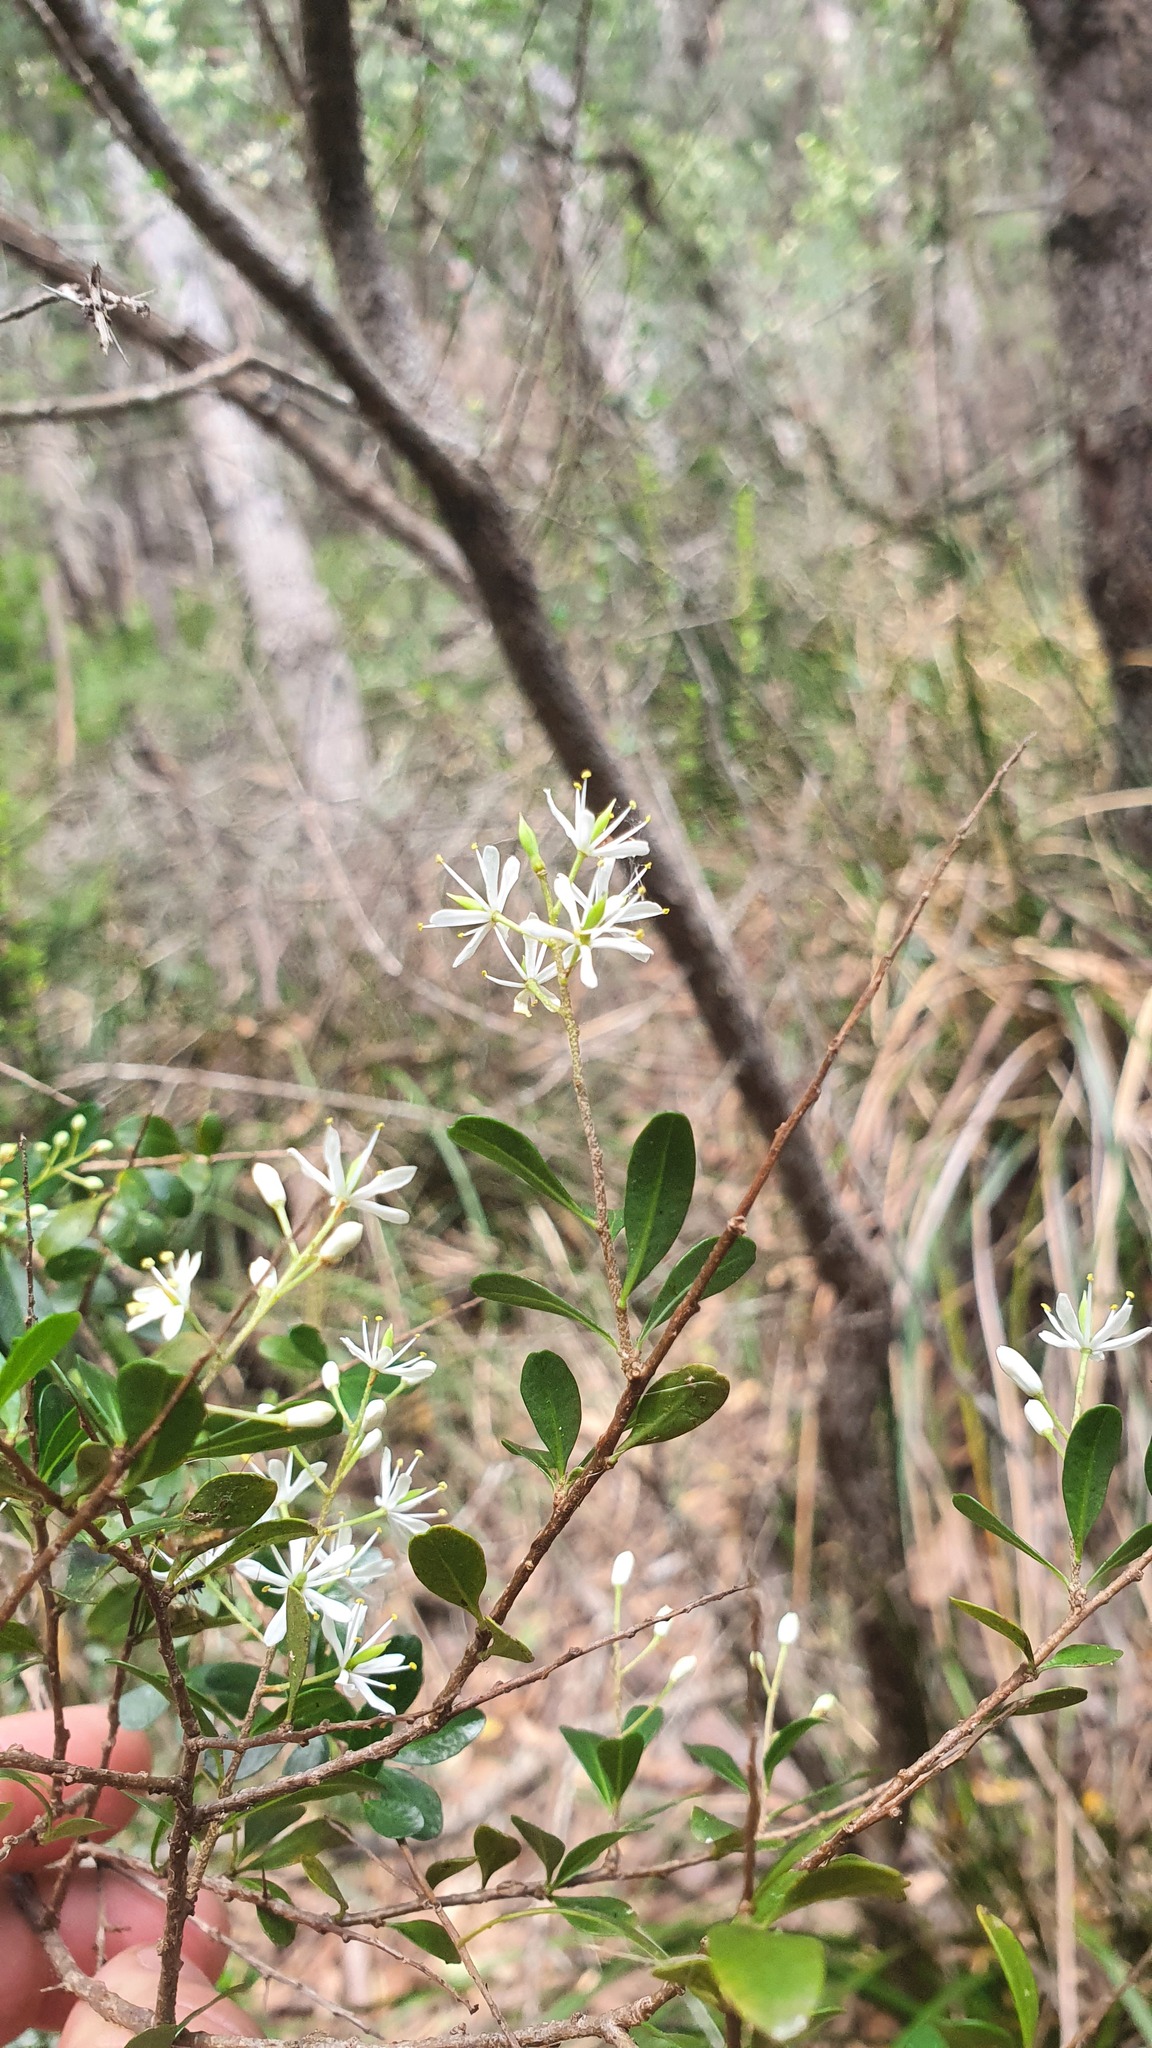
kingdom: Plantae
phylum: Tracheophyta
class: Magnoliopsida
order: Apiales
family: Pittosporaceae
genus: Bursaria
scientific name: Bursaria spinosa
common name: Australian blackthorn
